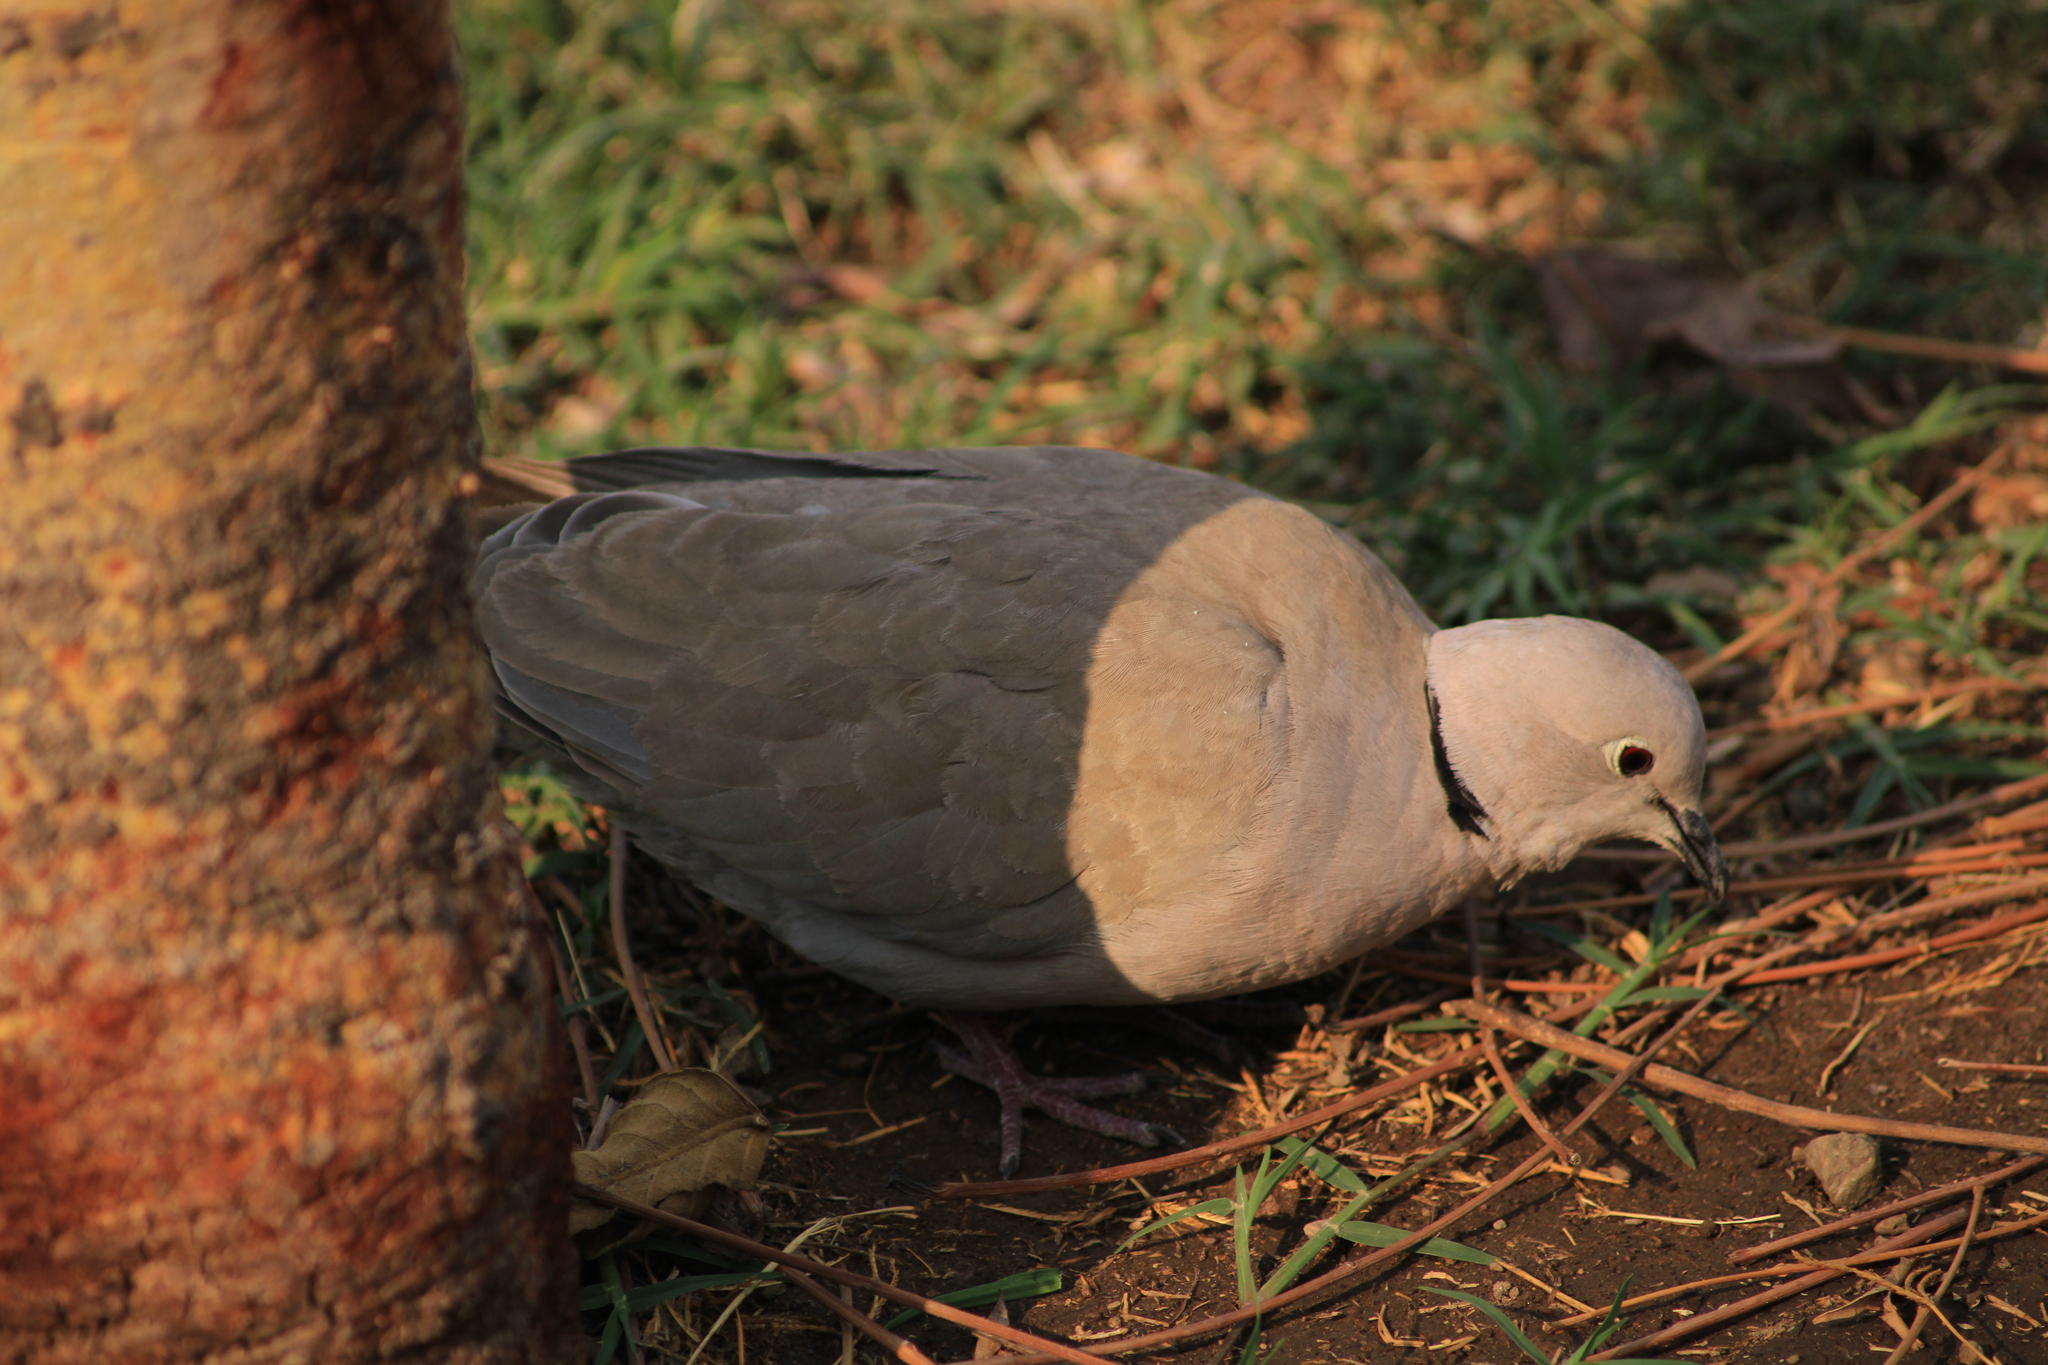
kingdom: Animalia
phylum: Chordata
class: Aves
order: Columbiformes
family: Columbidae
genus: Streptopelia
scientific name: Streptopelia decaocto
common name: Eurasian collared dove
